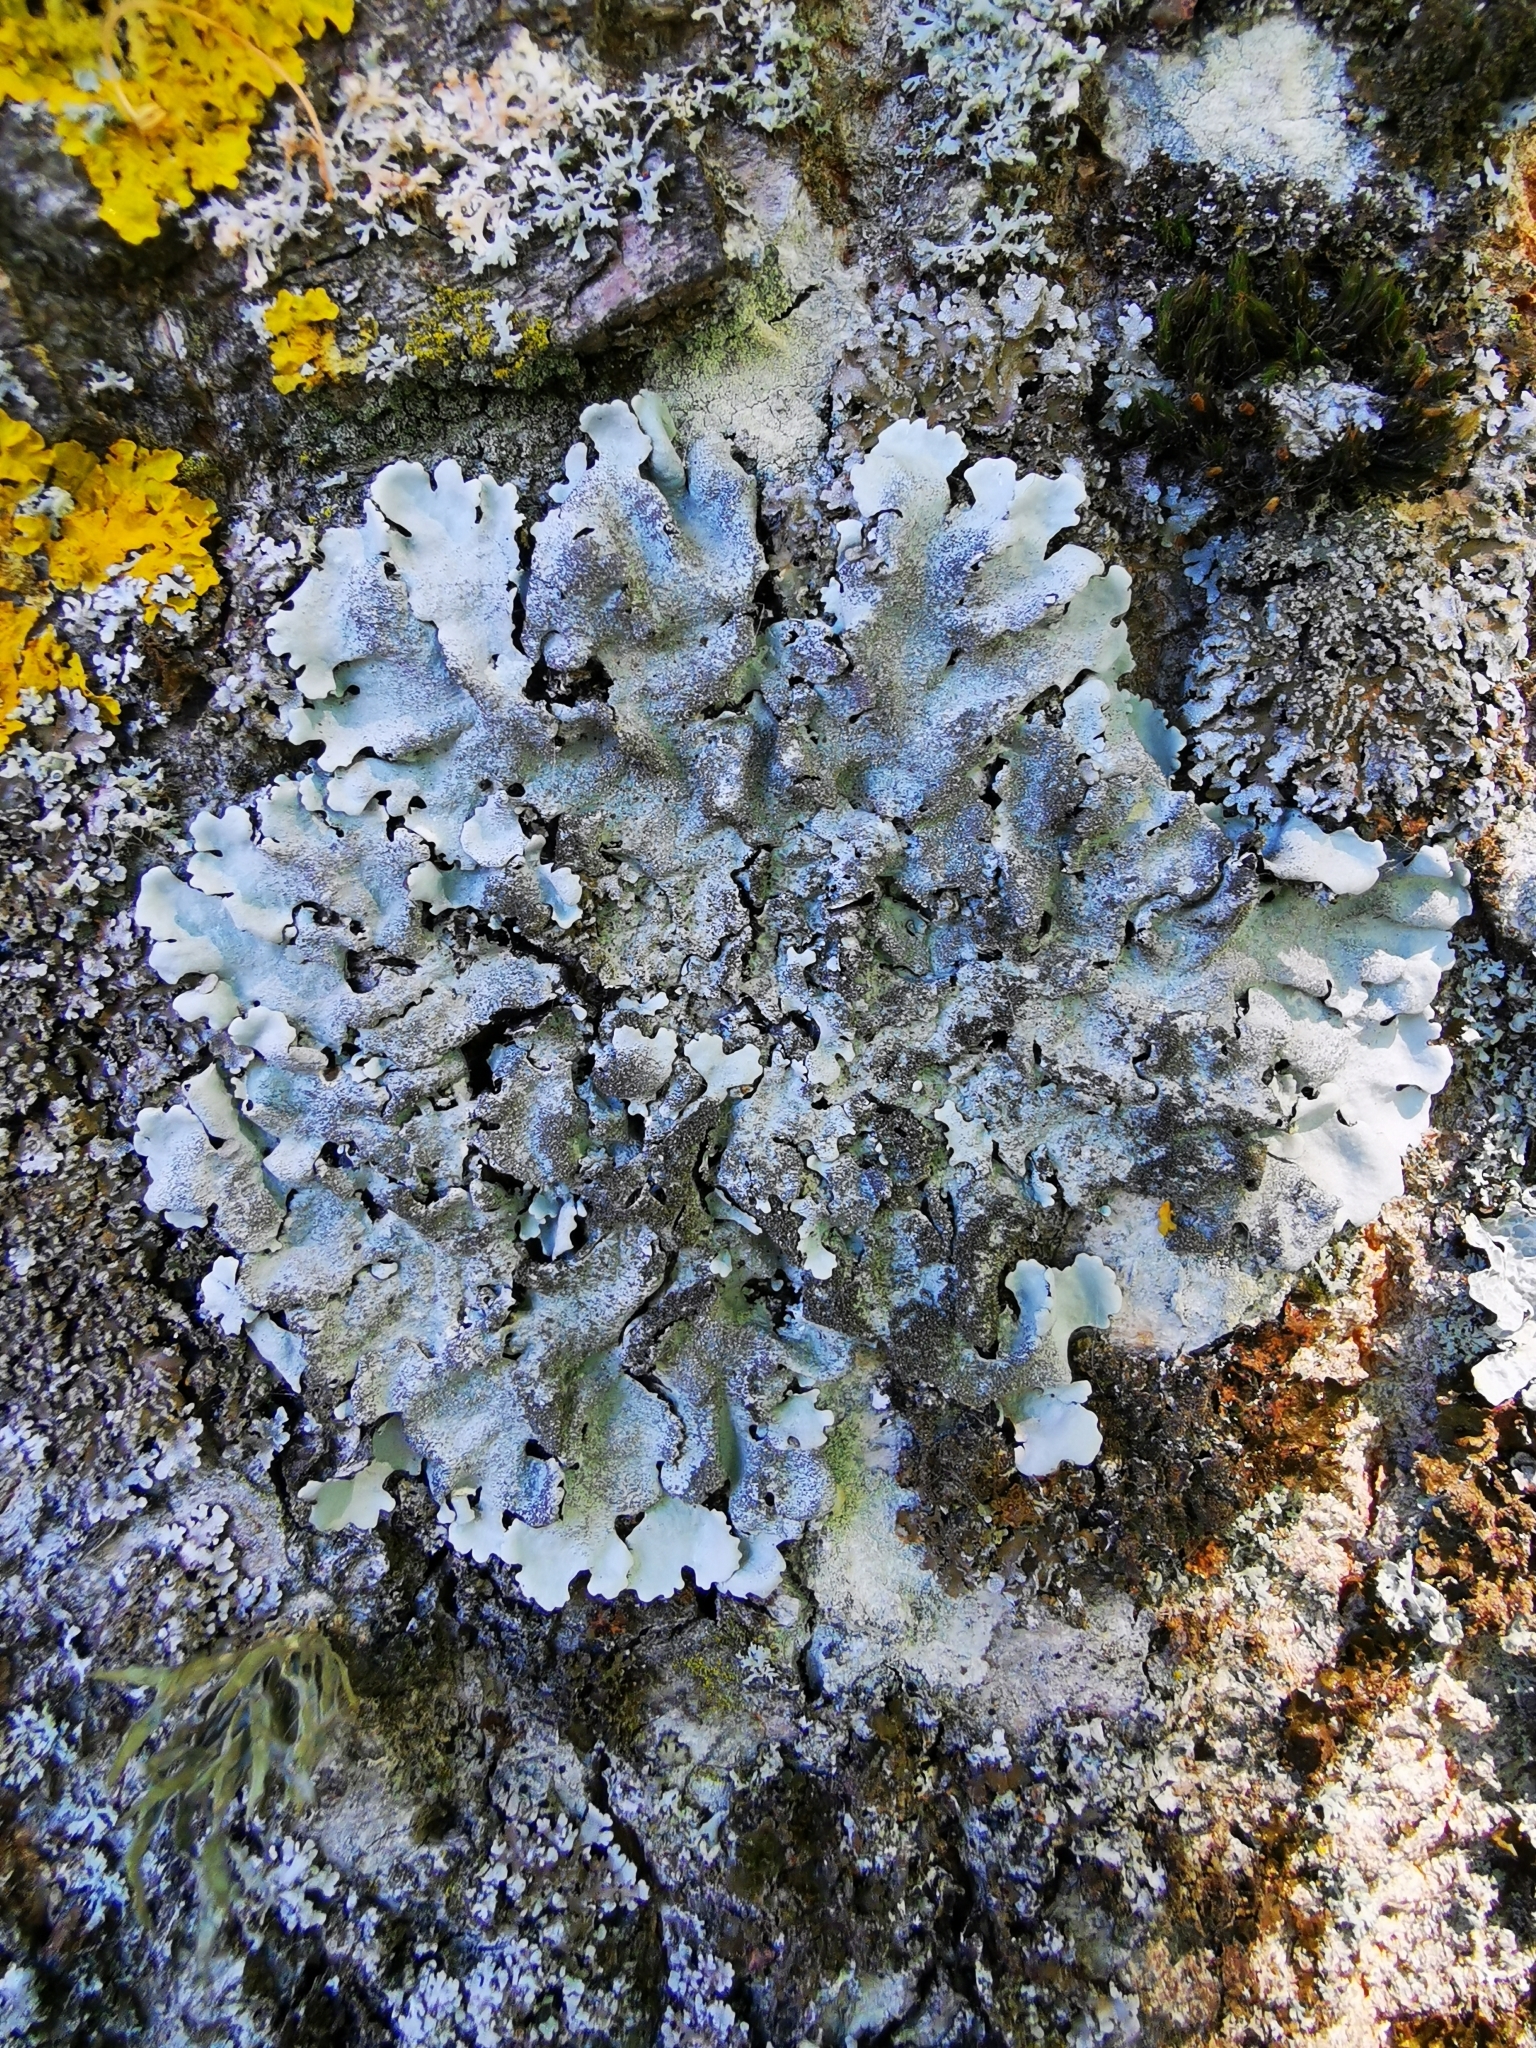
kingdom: Fungi
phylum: Ascomycota
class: Lecanoromycetes
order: Lecanorales
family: Parmeliaceae
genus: Parmelina
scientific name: Parmelina tiliacea
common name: Linden shield lichen
